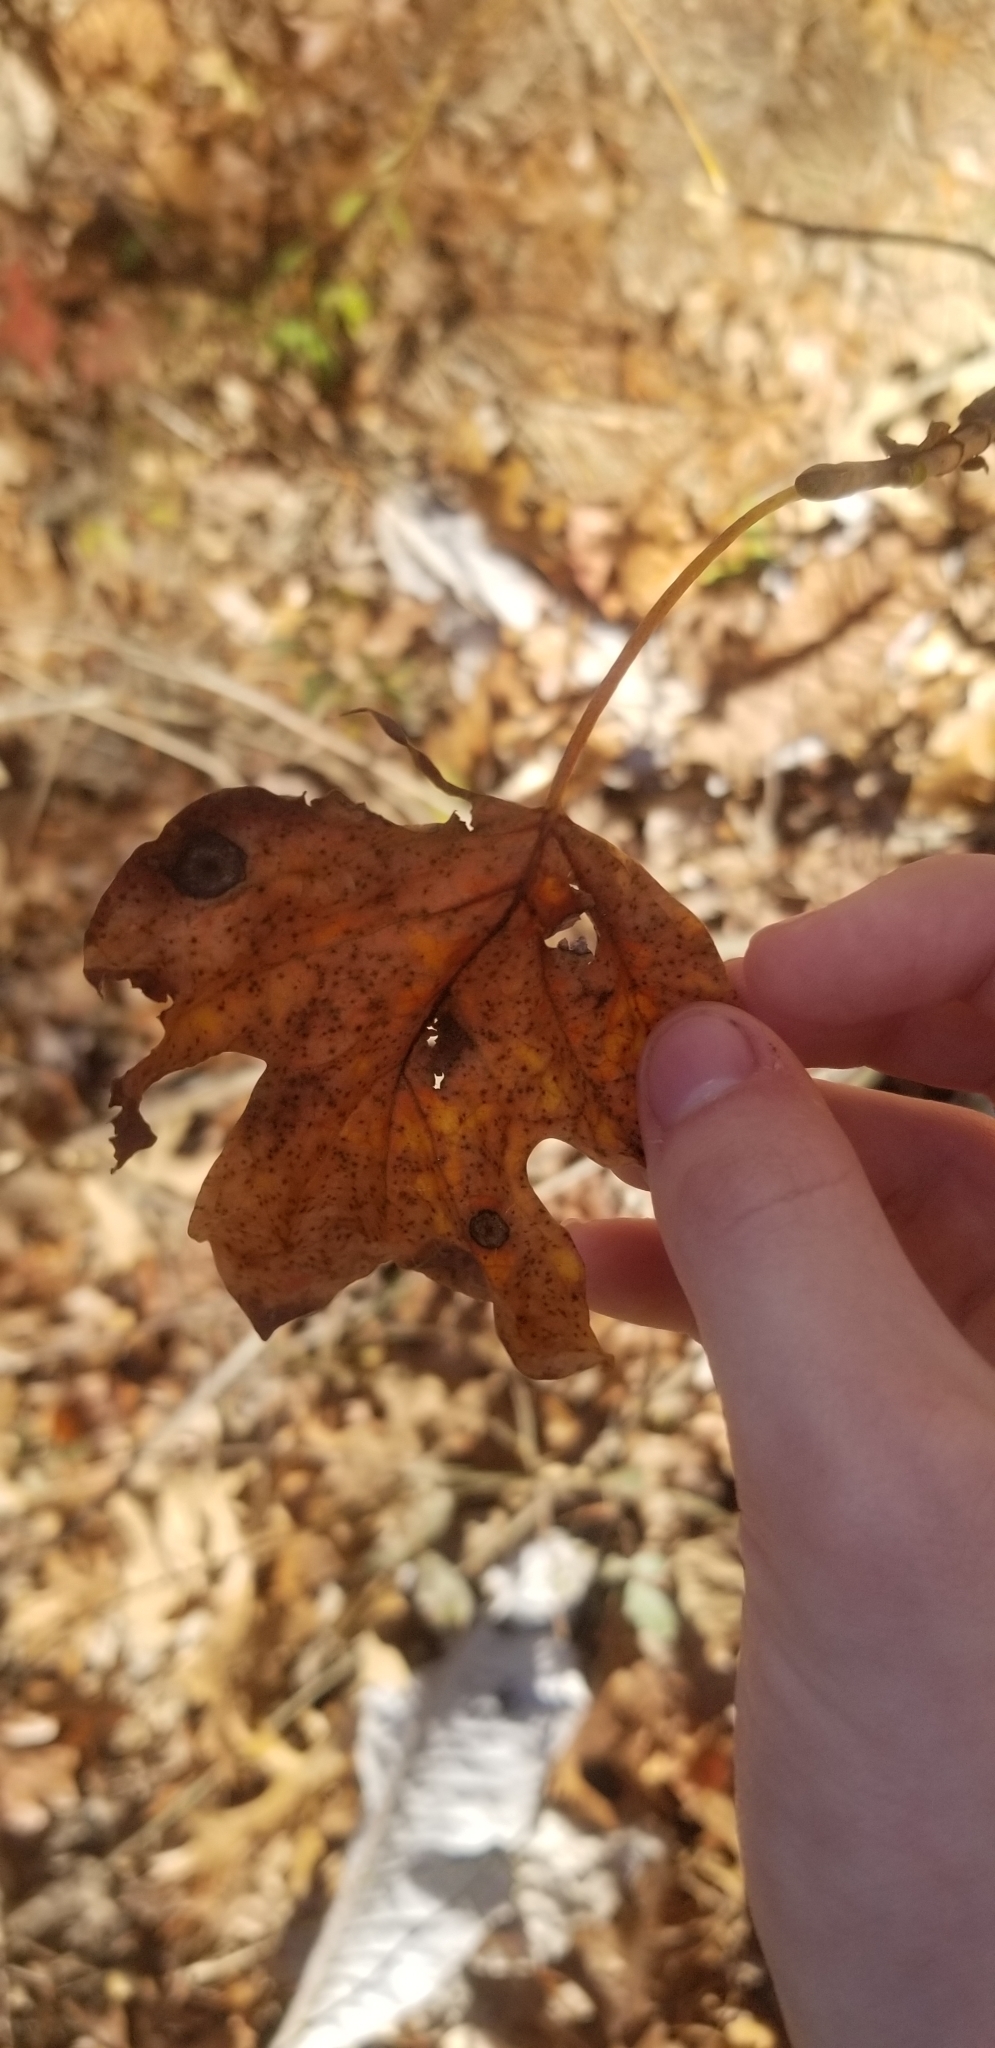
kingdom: Plantae
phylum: Tracheophyta
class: Magnoliopsida
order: Magnoliales
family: Magnoliaceae
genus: Liriodendron
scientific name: Liriodendron tulipifera
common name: Tulip tree
